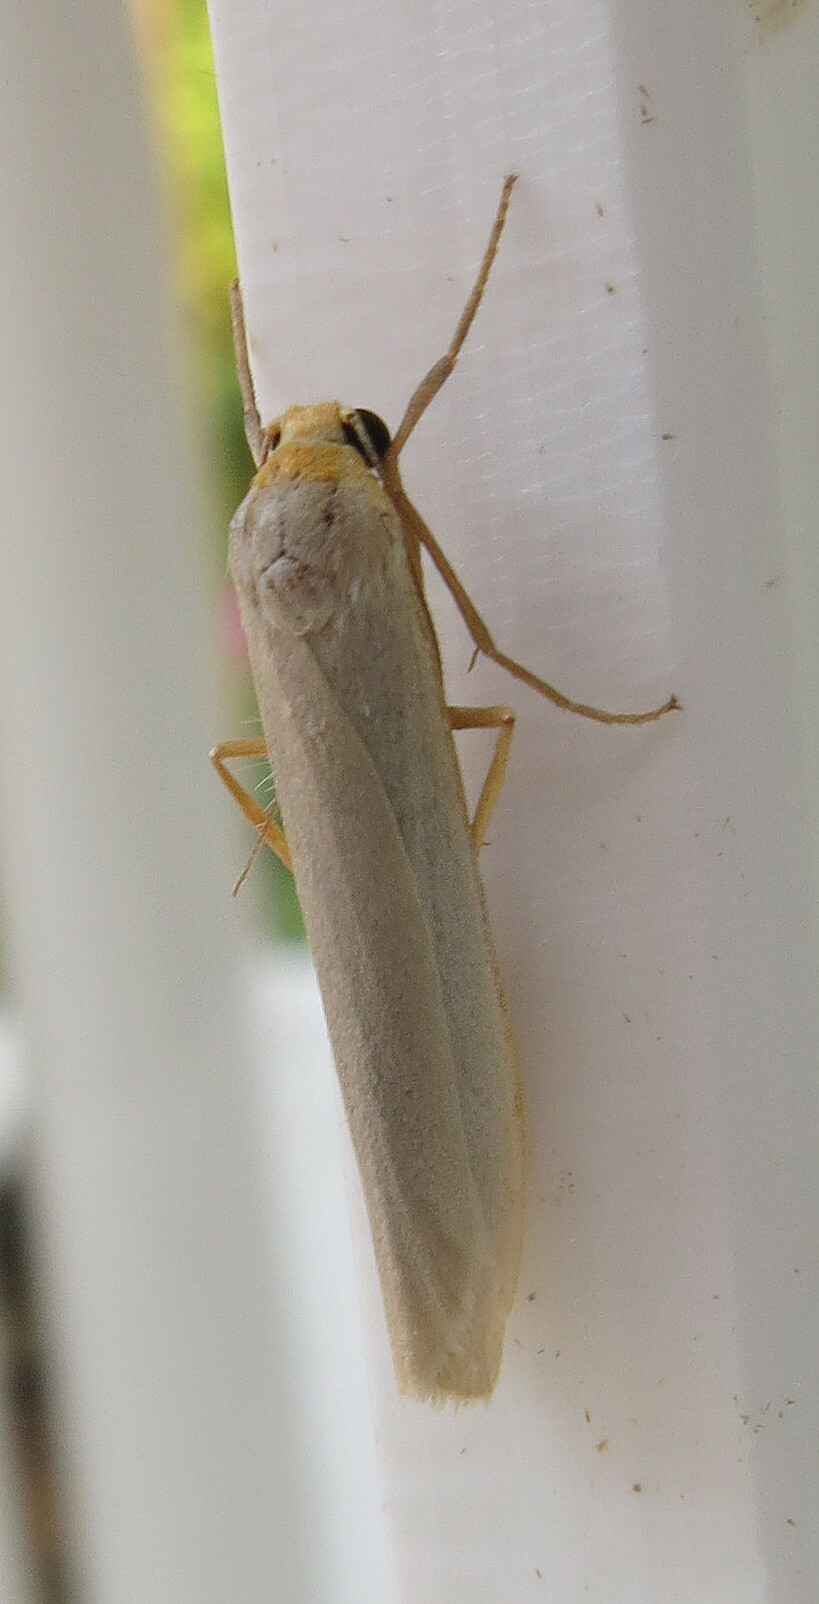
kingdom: Animalia
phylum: Arthropoda
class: Insecta
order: Lepidoptera
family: Erebidae
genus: Eilema
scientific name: Eilema caniola
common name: Hoary footman
